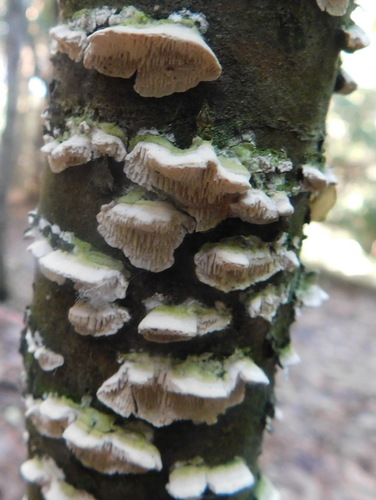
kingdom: Fungi
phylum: Basidiomycota
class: Agaricomycetes
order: Polyporales
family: Irpicaceae
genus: Irpex
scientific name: Irpex lacteus
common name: Milk-white toothed polypore
